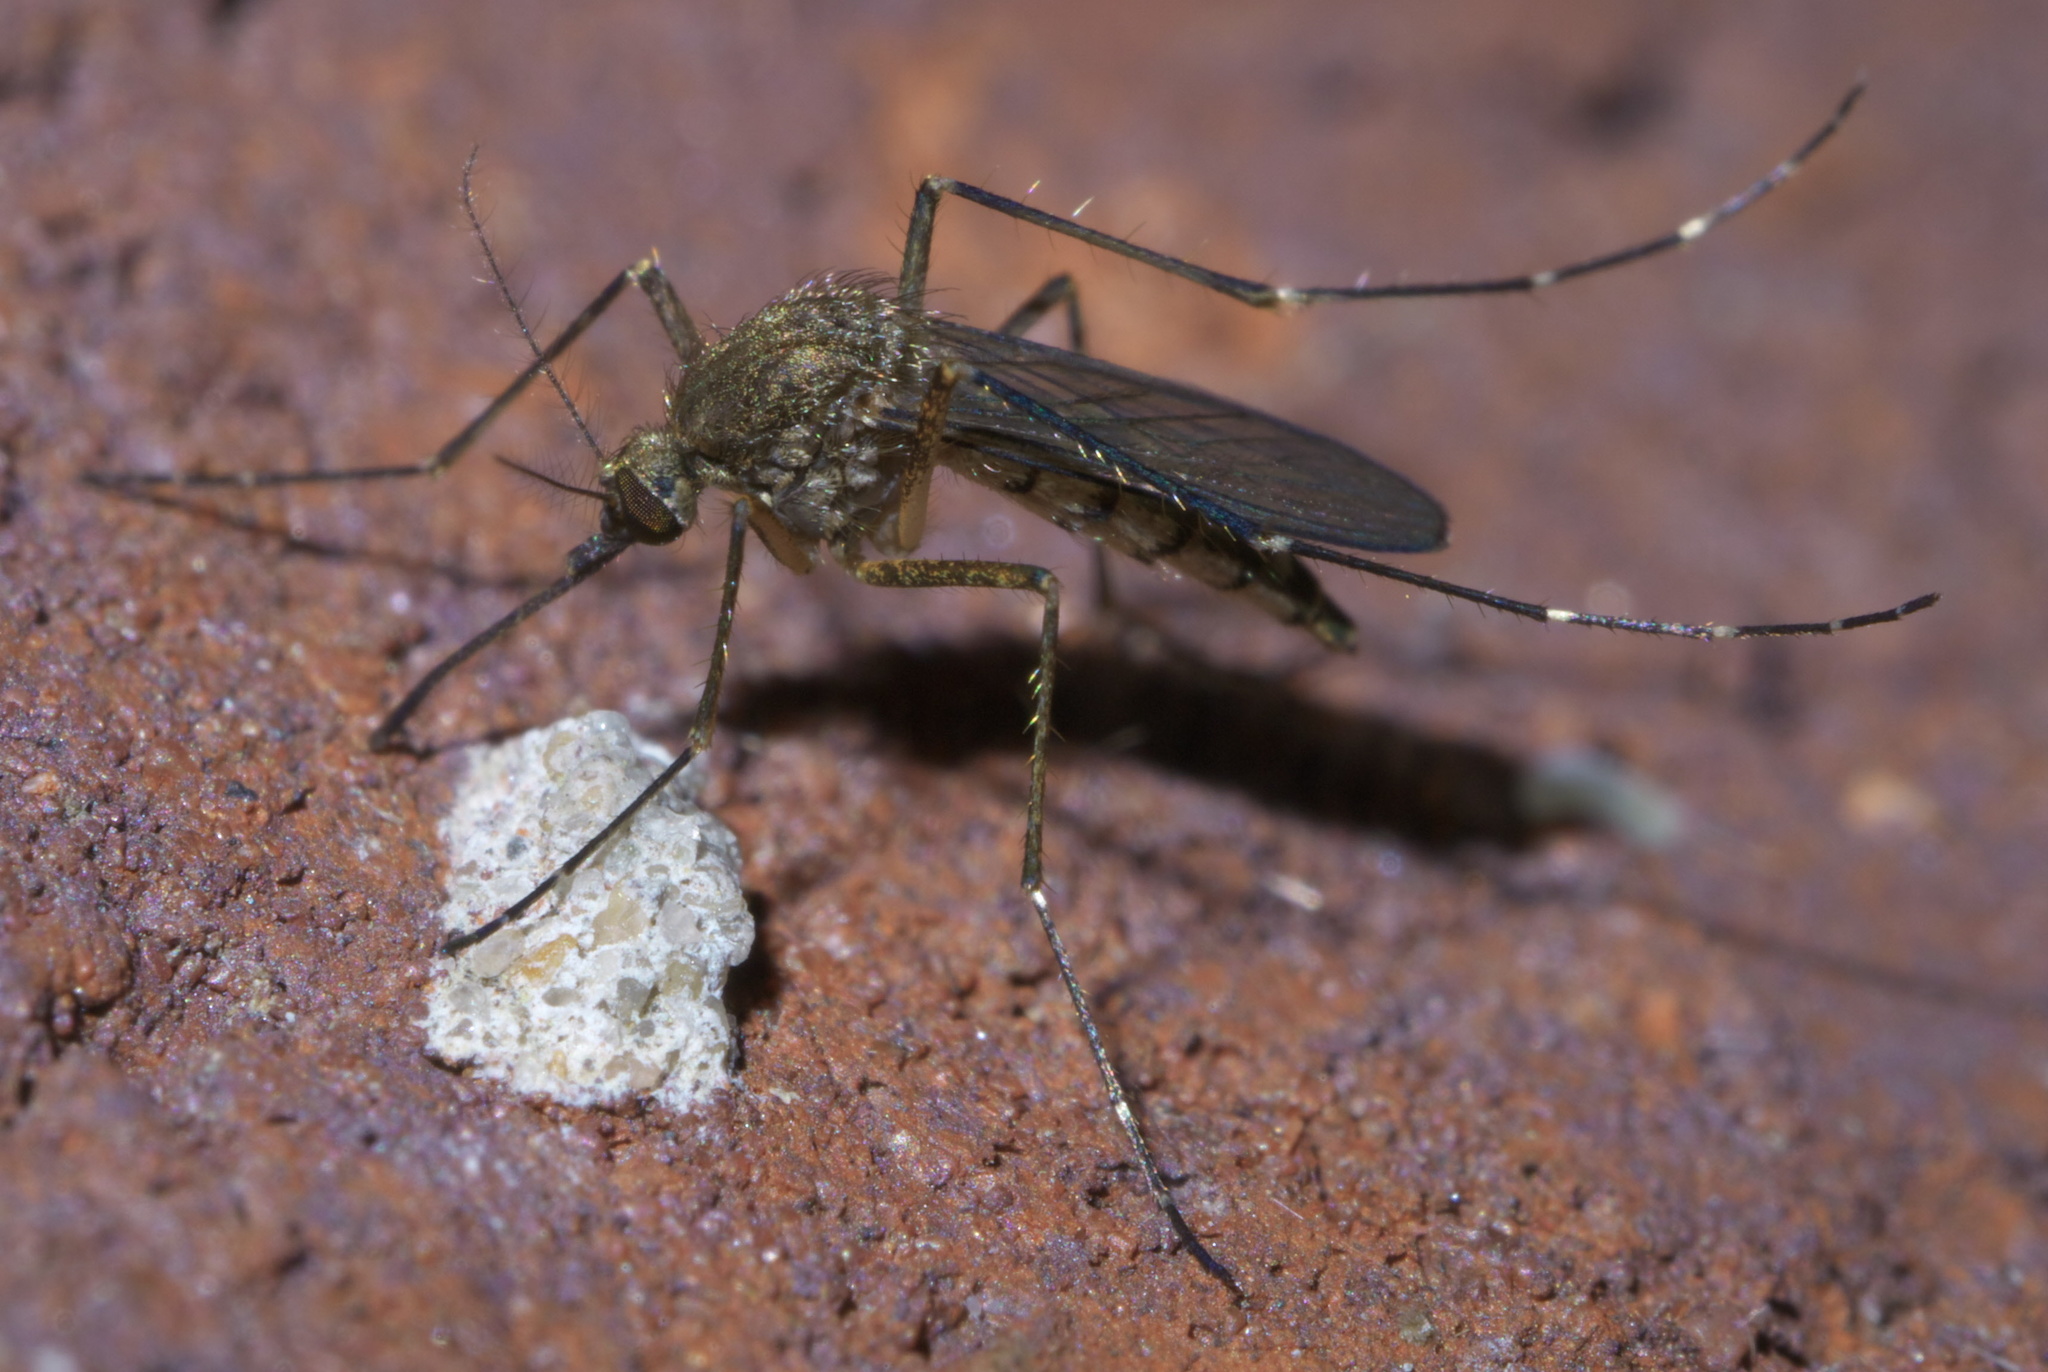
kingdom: Animalia
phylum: Arthropoda
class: Insecta
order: Diptera
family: Culicidae
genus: Aedes
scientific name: Aedes vexans
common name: Inland floodwater mosquito
